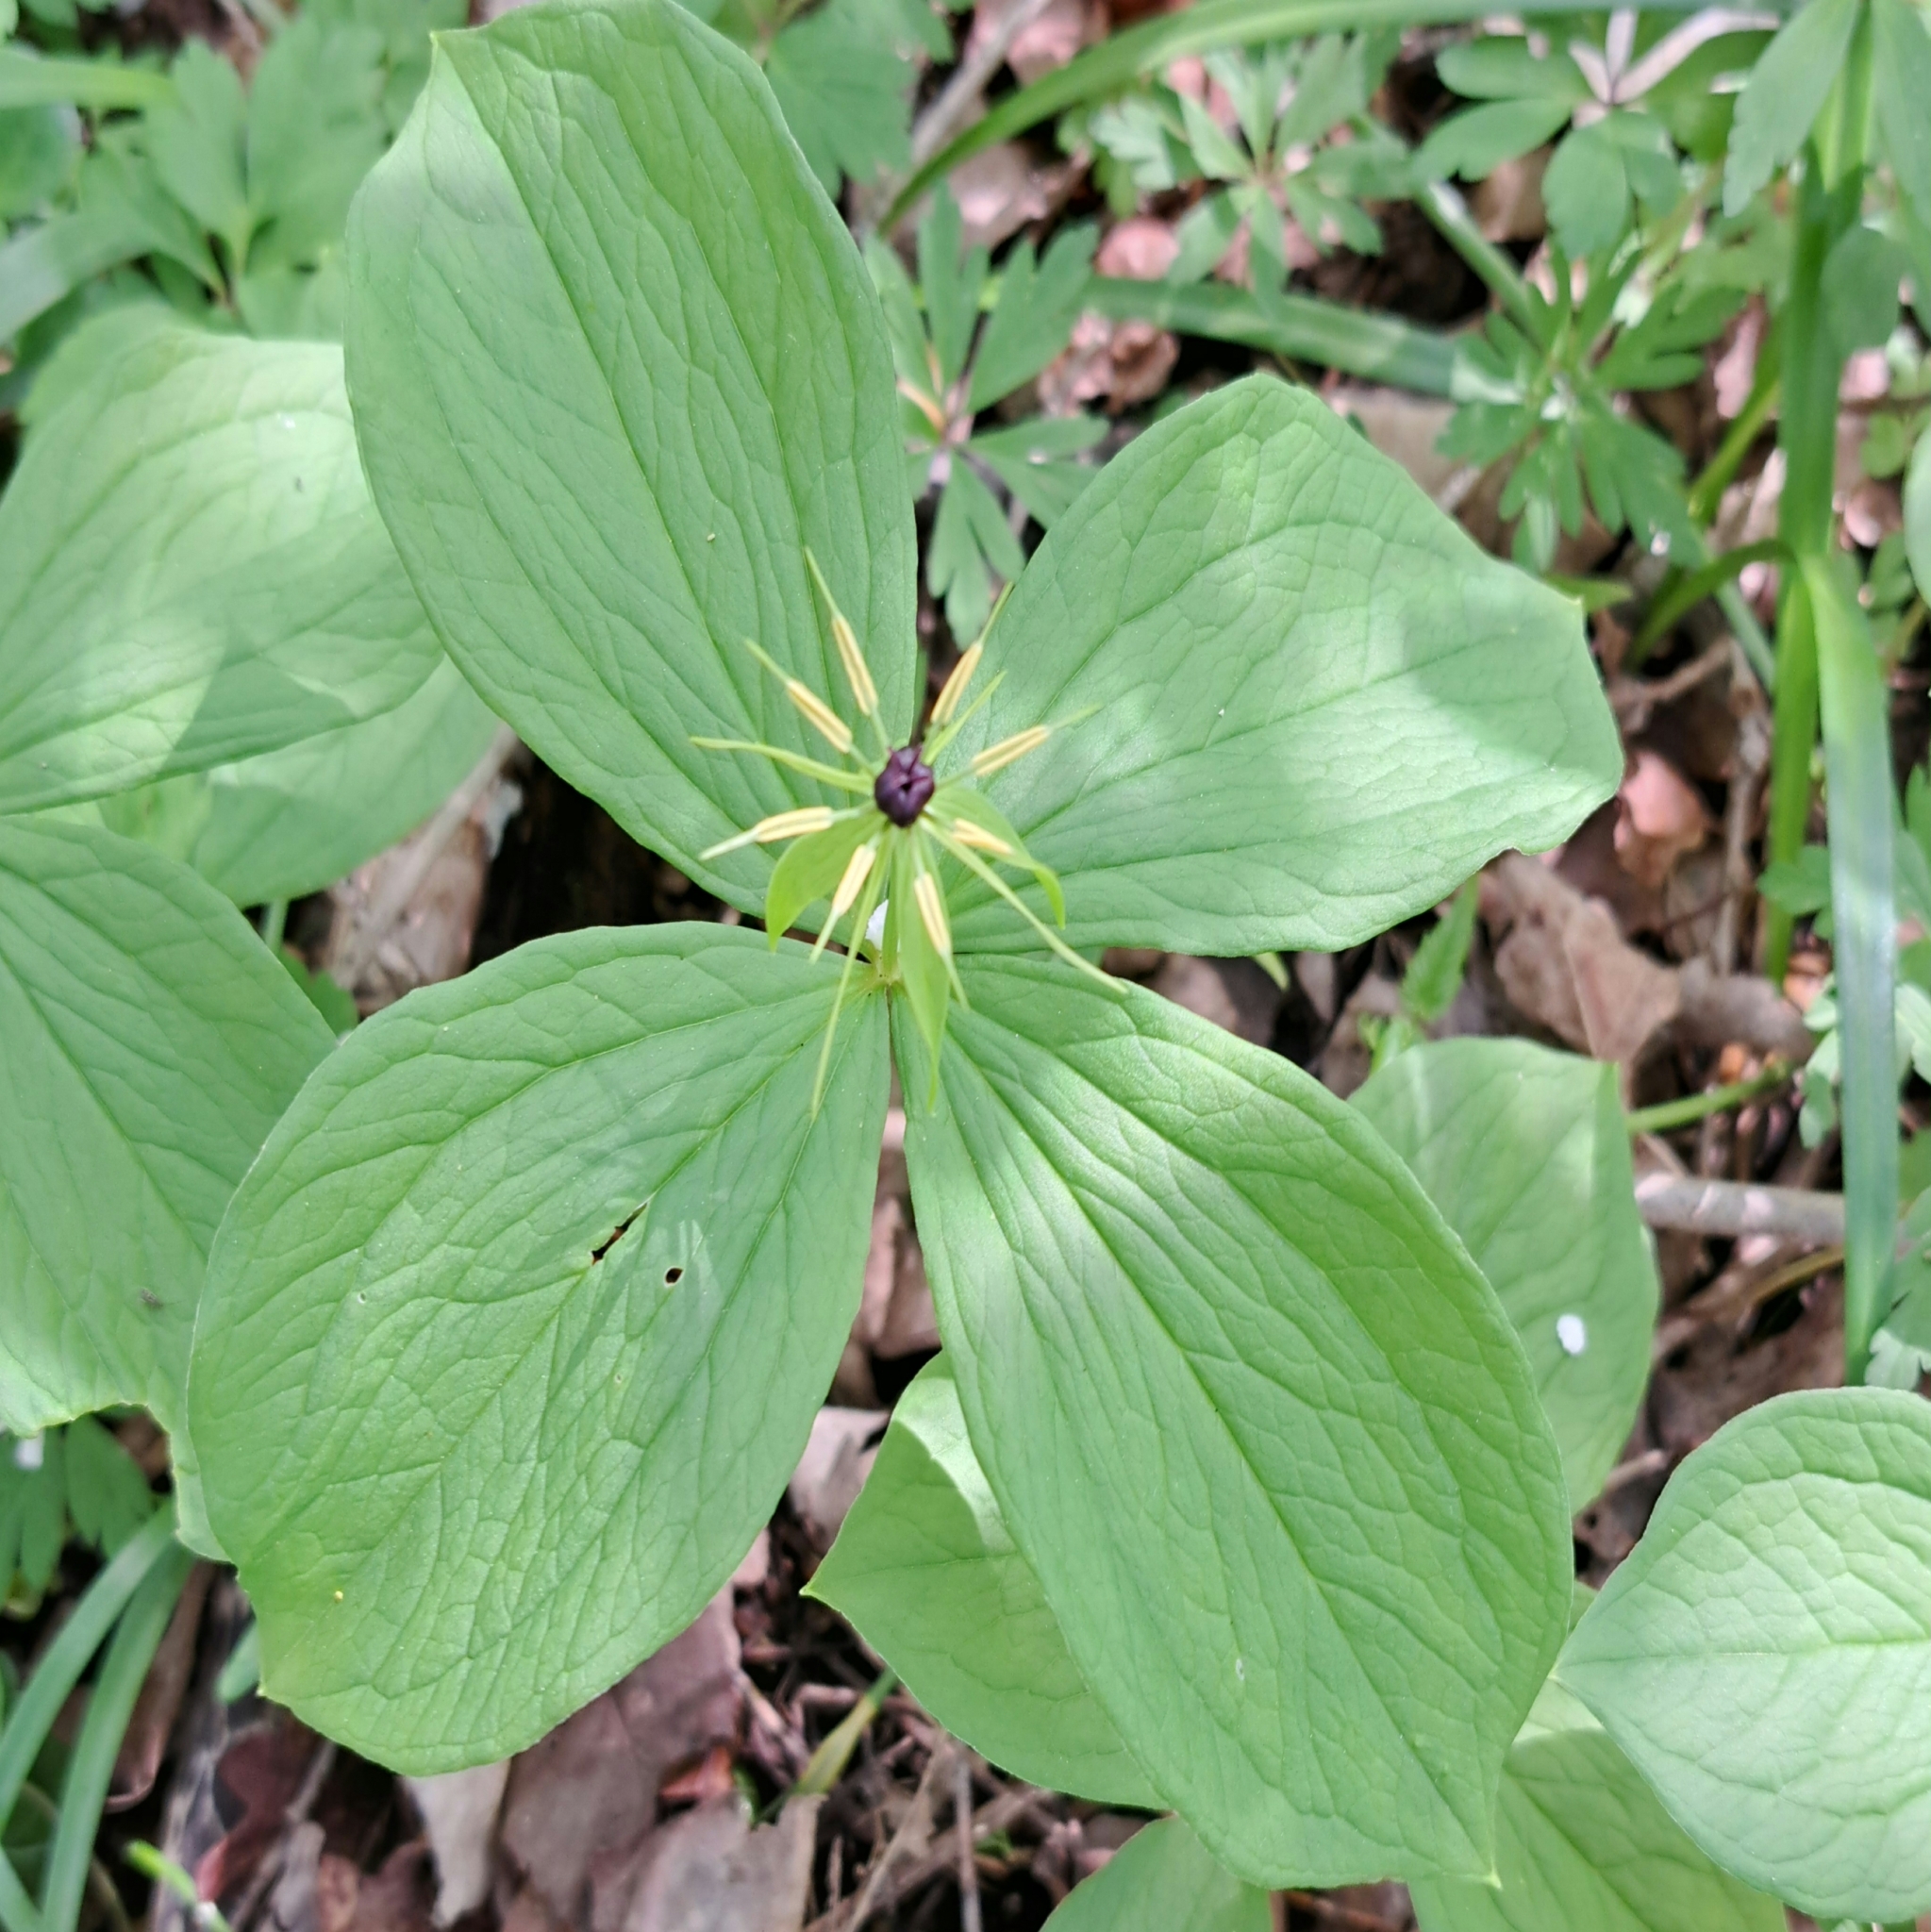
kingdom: Plantae
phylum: Tracheophyta
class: Liliopsida
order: Liliales
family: Melanthiaceae
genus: Paris
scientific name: Paris quadrifolia
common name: Herb-paris
